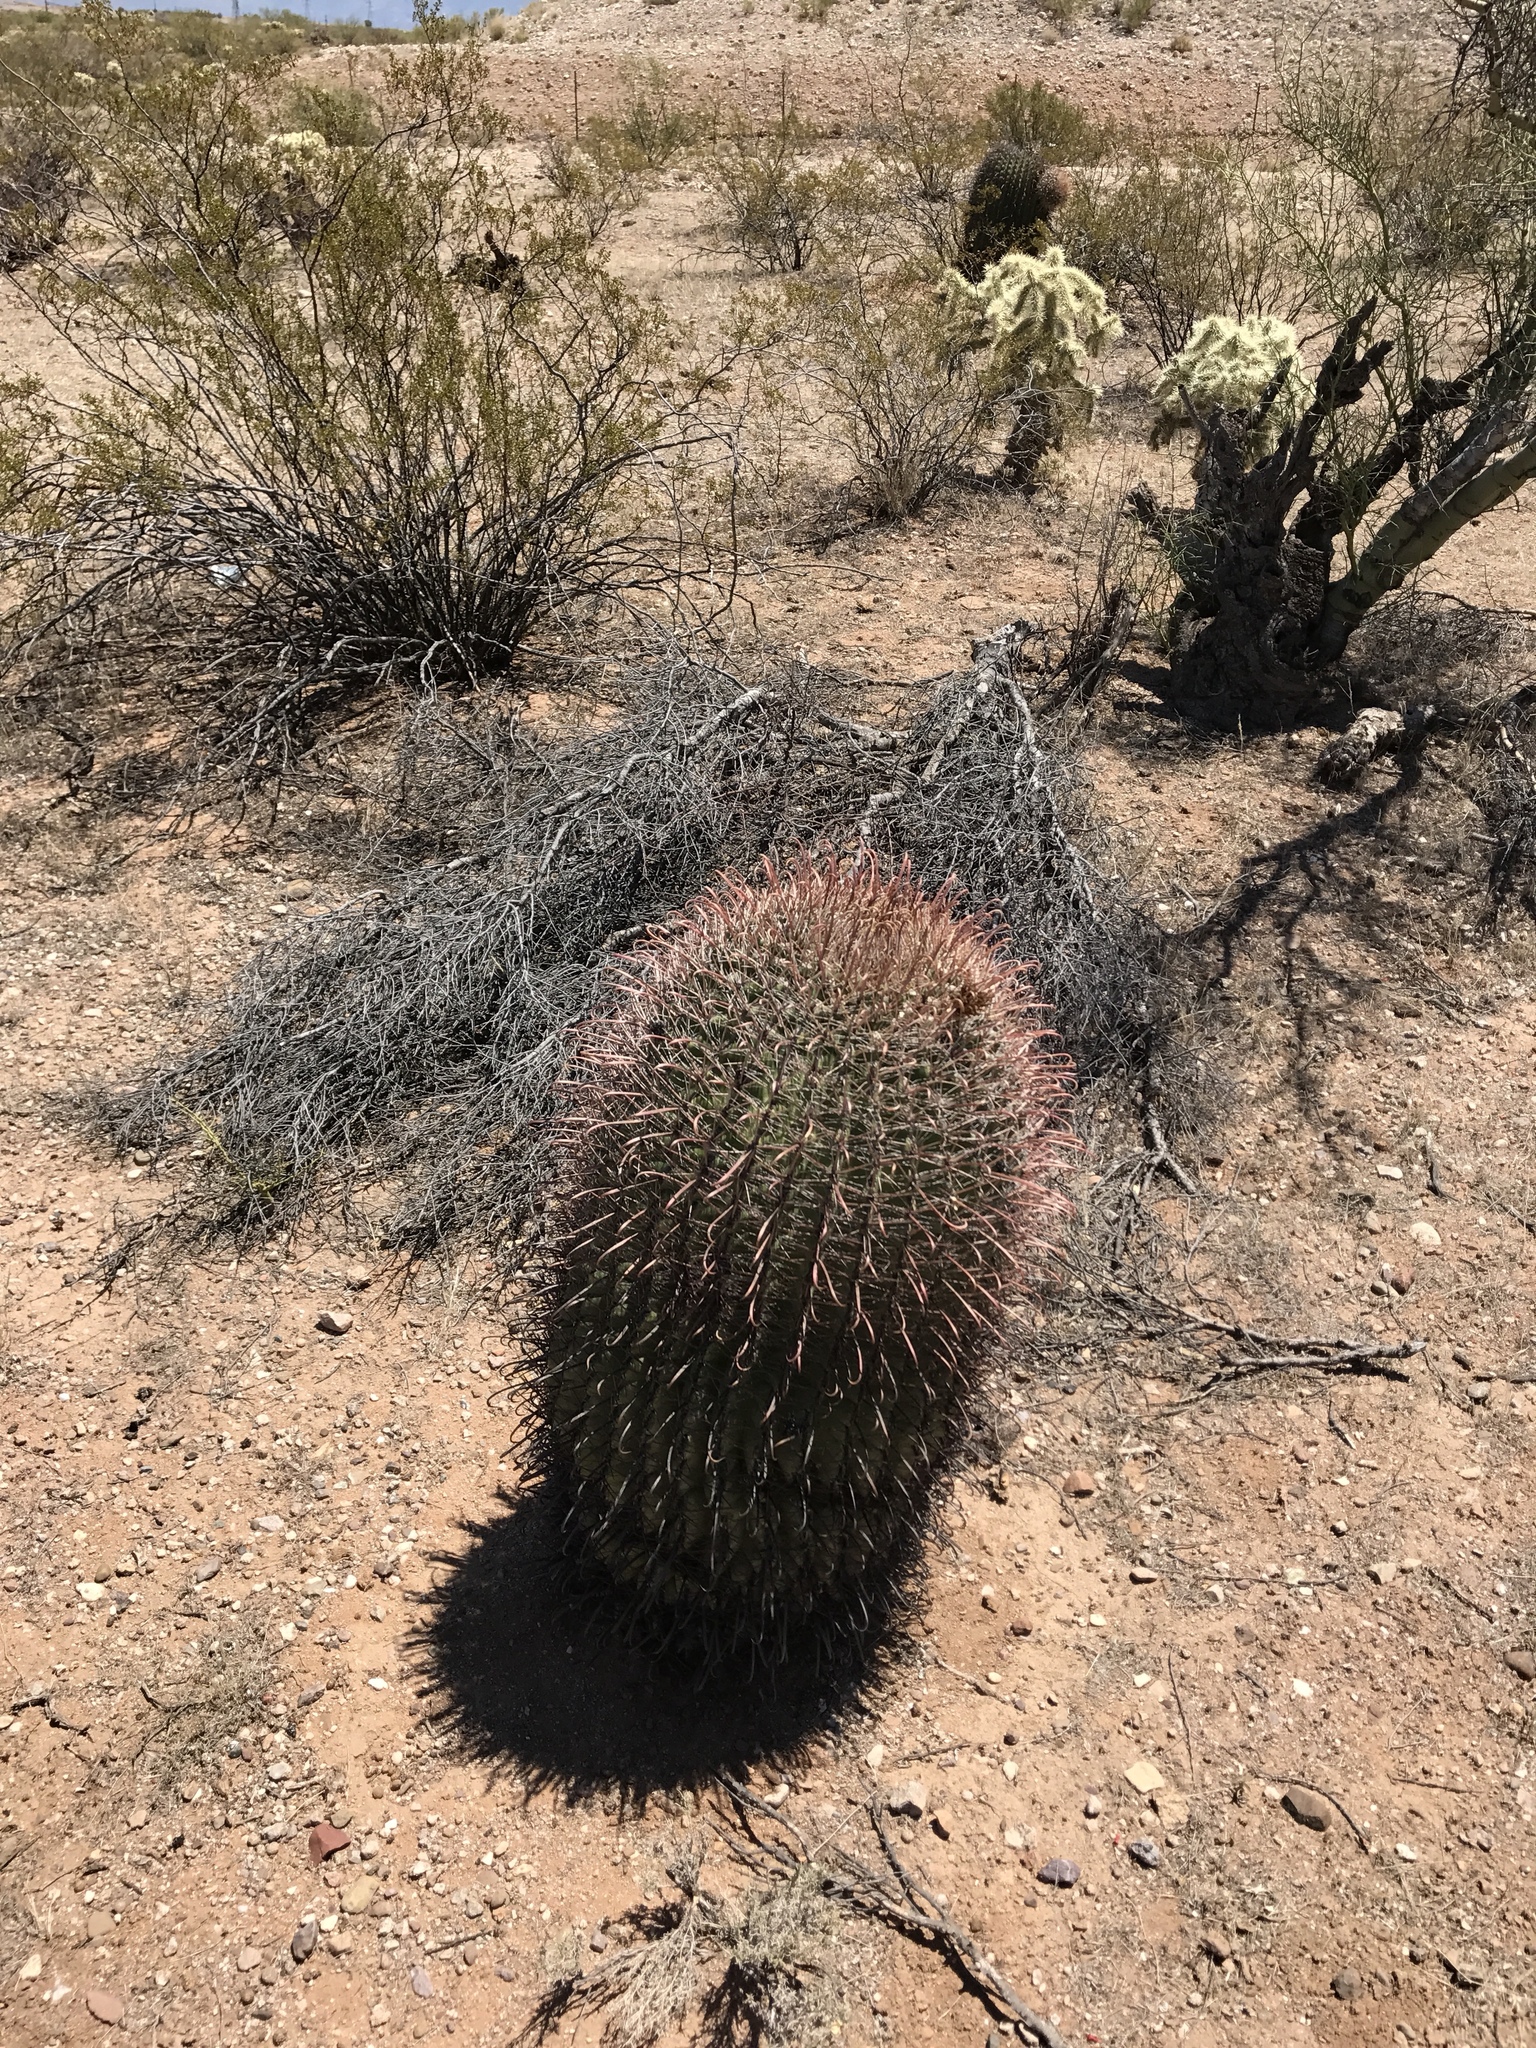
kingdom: Plantae
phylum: Tracheophyta
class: Magnoliopsida
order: Caryophyllales
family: Cactaceae
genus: Ferocactus
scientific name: Ferocactus wislizeni
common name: Candy barrel cactus
